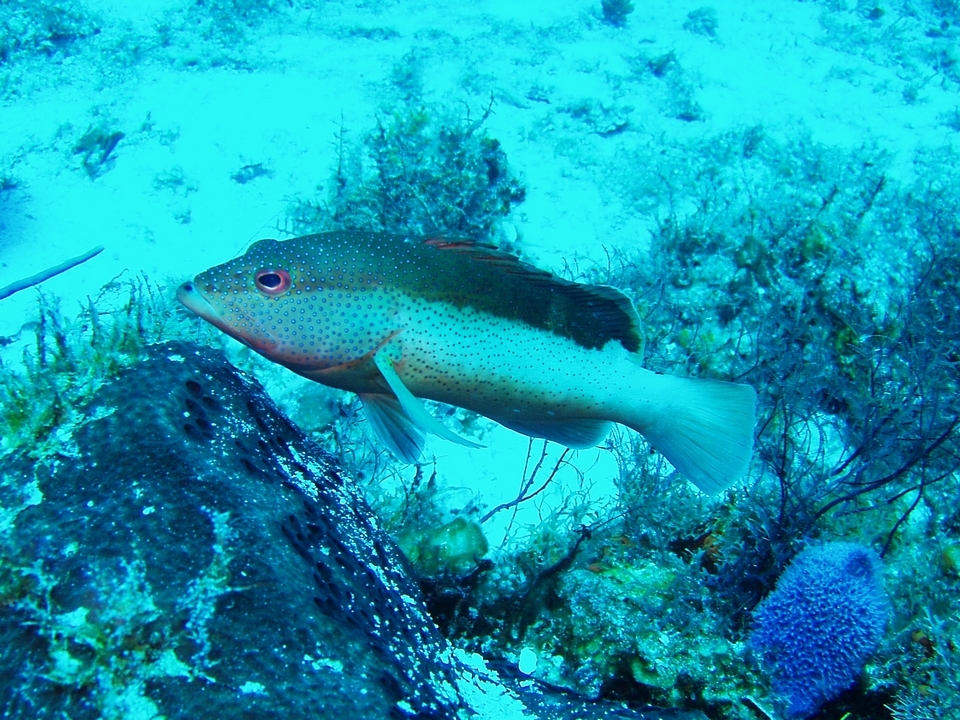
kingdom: Animalia
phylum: Chordata
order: Perciformes
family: Serranidae
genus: Cephalopholis
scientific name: Cephalopholis fulva
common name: Butterfish
